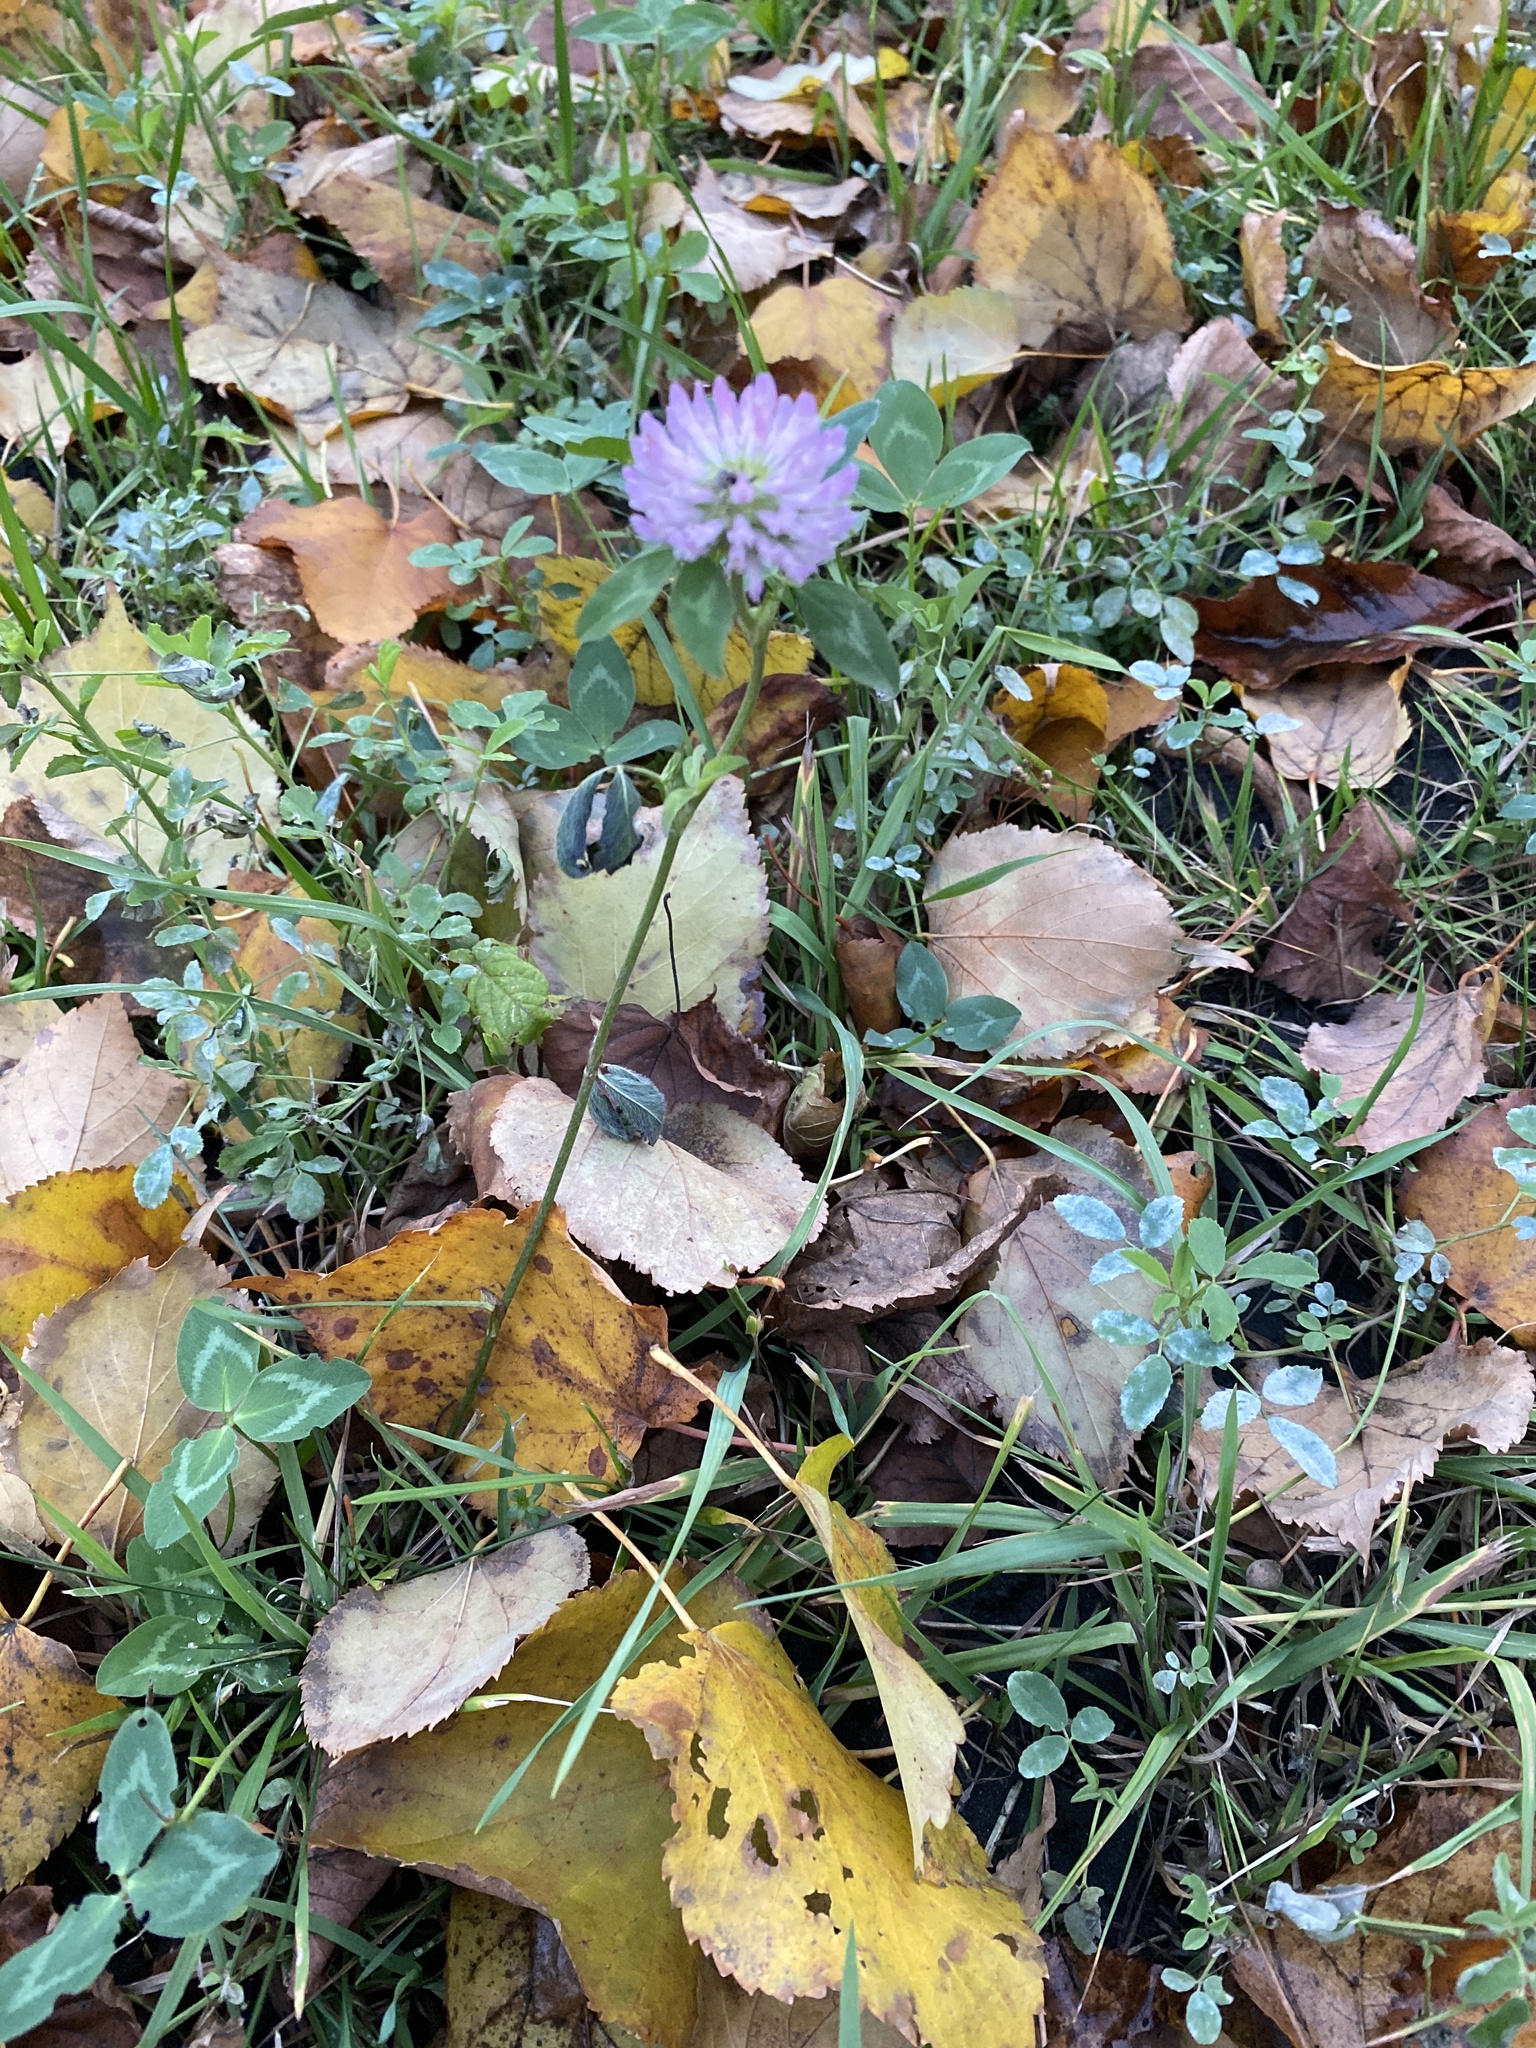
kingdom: Plantae
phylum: Tracheophyta
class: Magnoliopsida
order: Fabales
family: Fabaceae
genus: Trifolium
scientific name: Trifolium pratense
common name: Red clover
